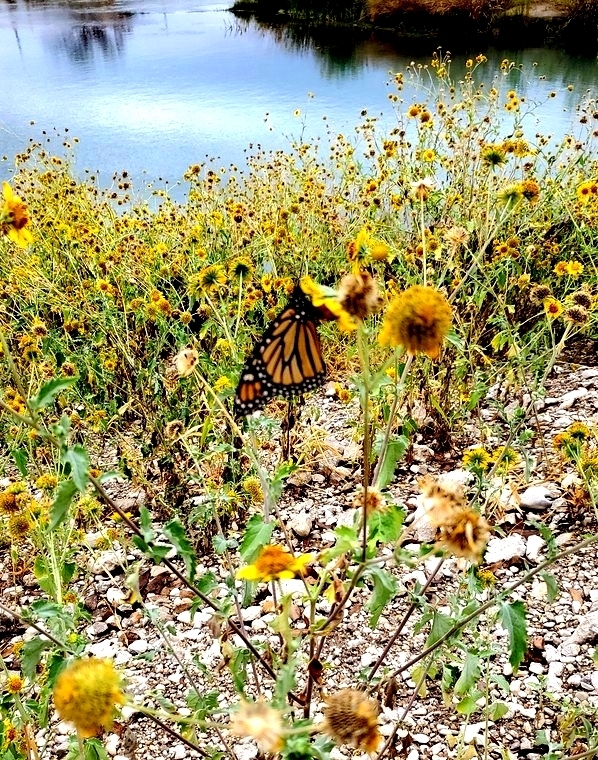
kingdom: Animalia
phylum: Arthropoda
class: Insecta
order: Lepidoptera
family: Nymphalidae
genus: Danaus
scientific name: Danaus plexippus
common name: Monarch
